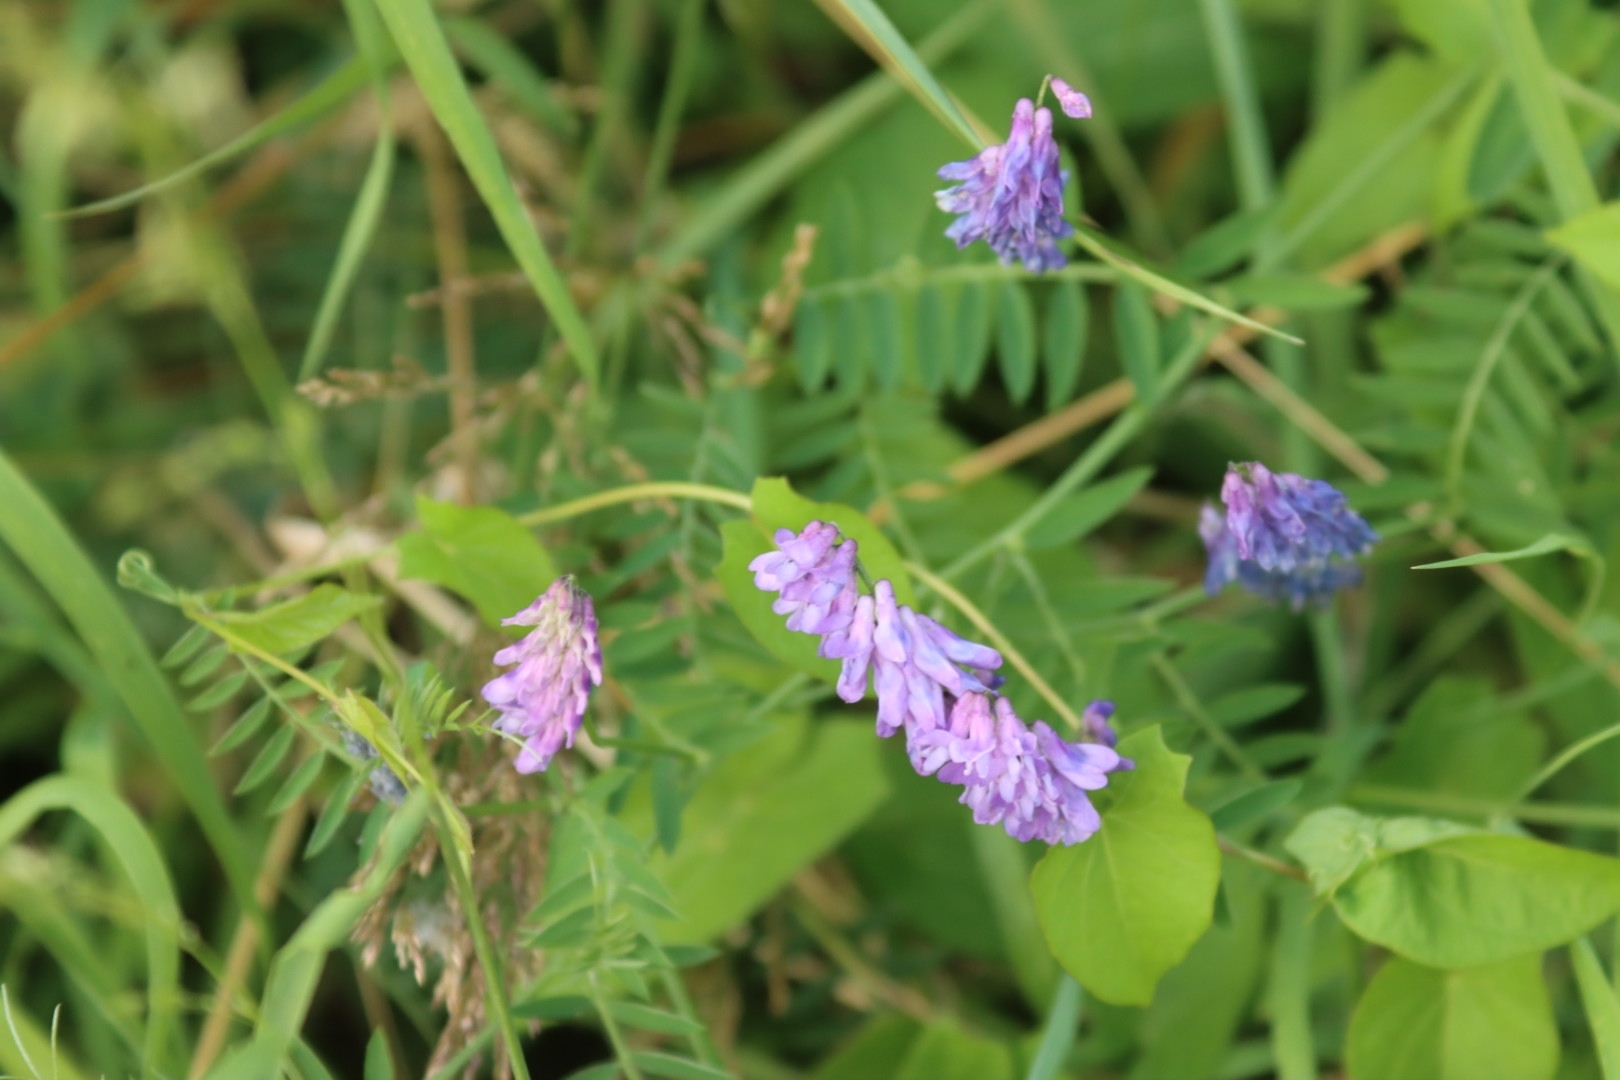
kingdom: Plantae
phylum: Tracheophyta
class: Magnoliopsida
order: Fabales
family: Fabaceae
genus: Vicia
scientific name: Vicia cracca
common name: Bird vetch
